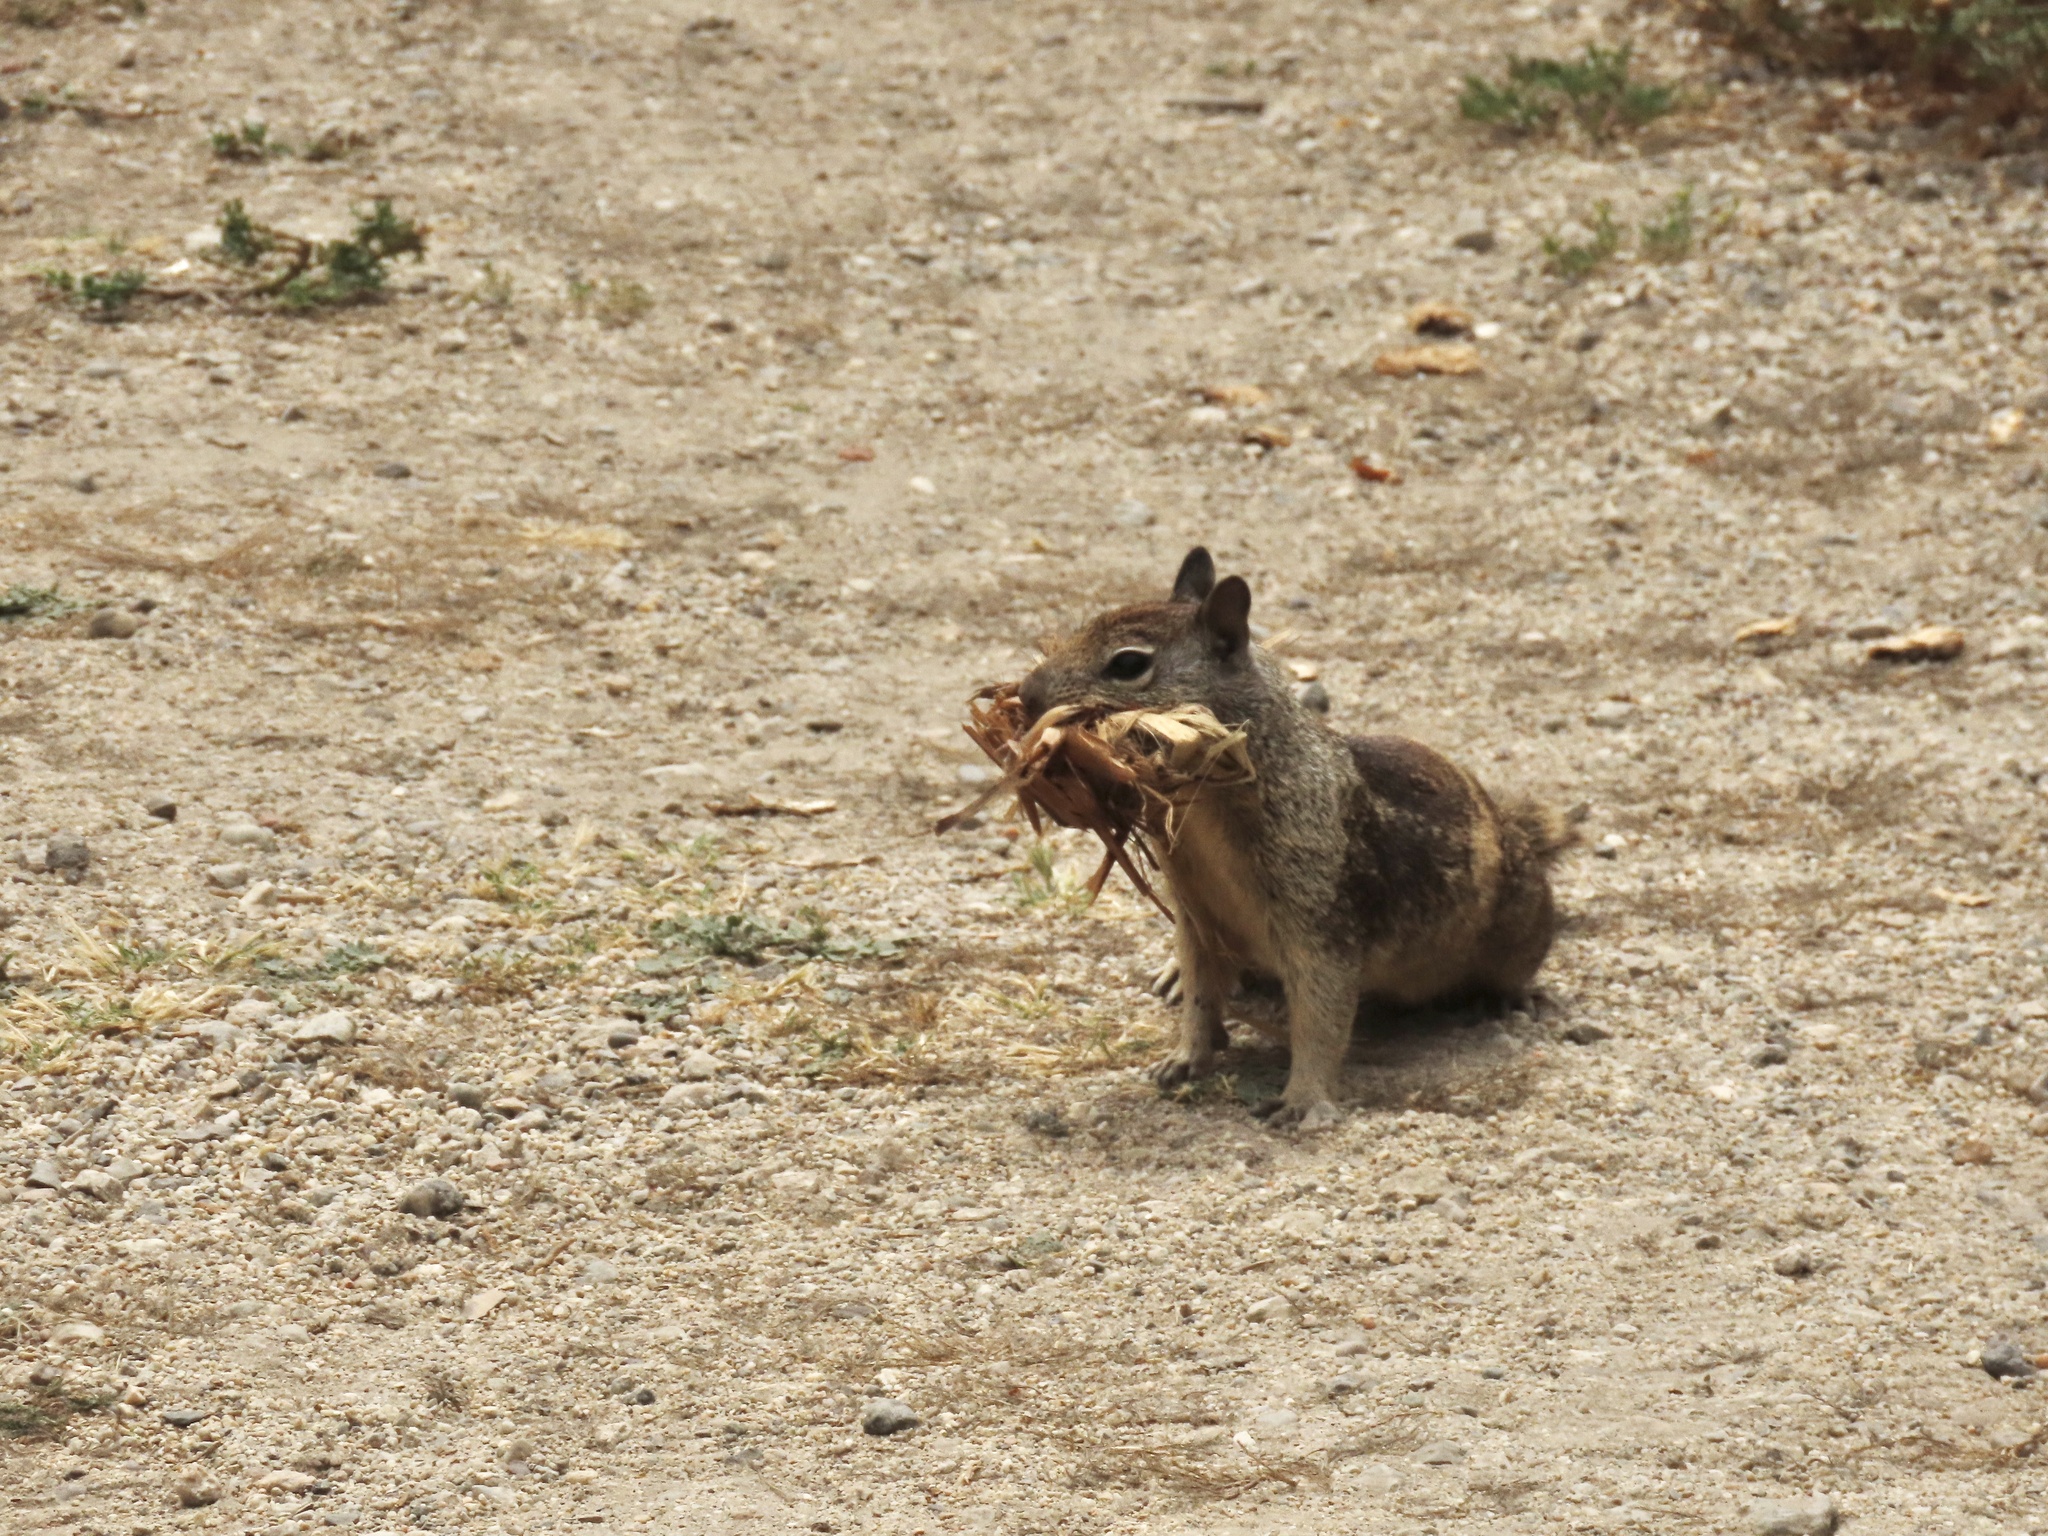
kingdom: Animalia
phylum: Chordata
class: Mammalia
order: Rodentia
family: Sciuridae
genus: Otospermophilus
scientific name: Otospermophilus beecheyi
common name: California ground squirrel
